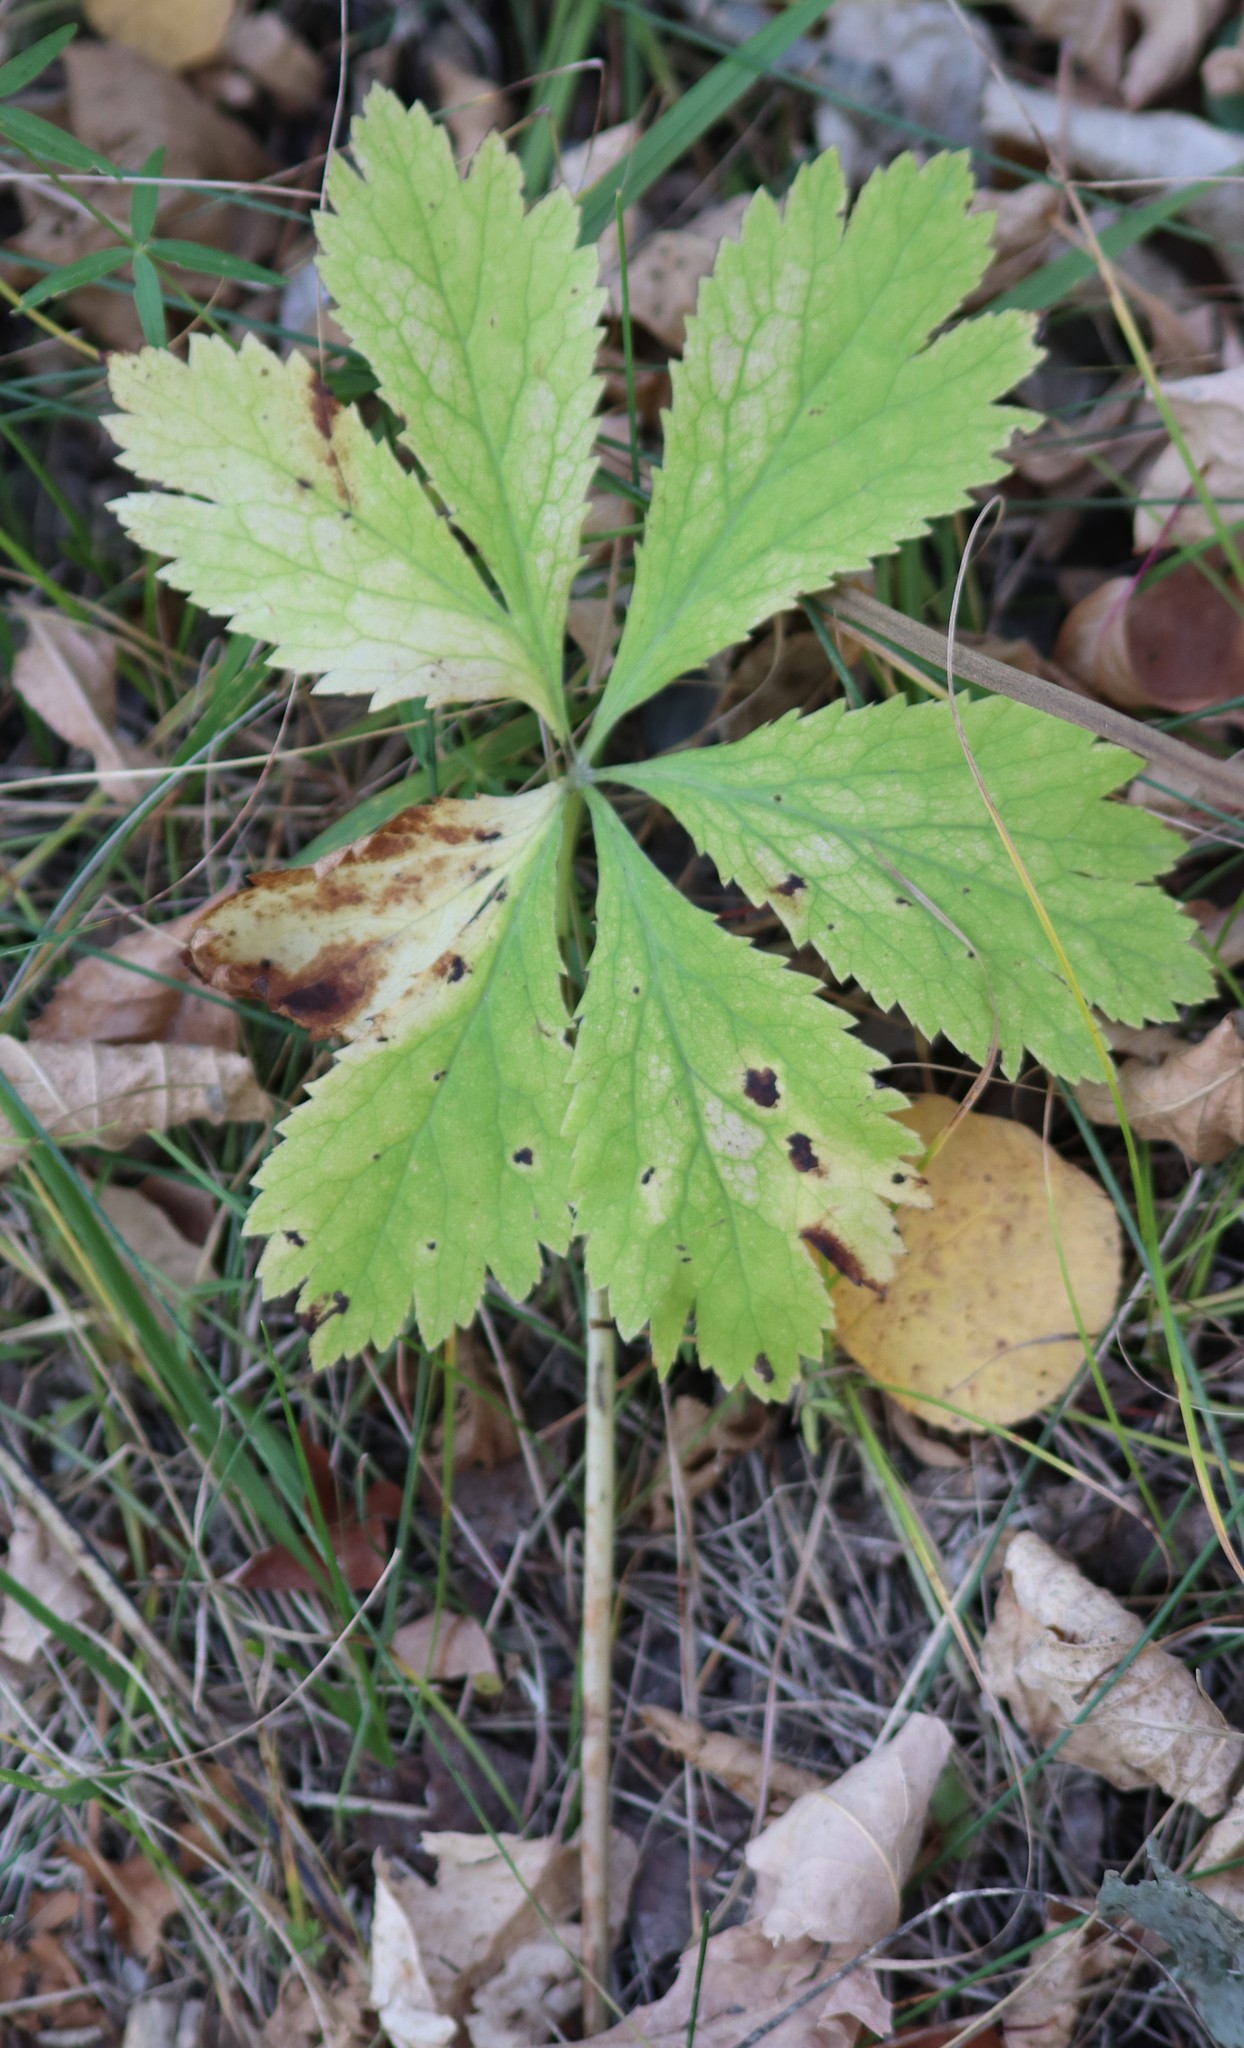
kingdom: Plantae
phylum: Tracheophyta
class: Magnoliopsida
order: Apiales
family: Apiaceae
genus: Sanicula
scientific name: Sanicula marilandica
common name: Black snakeroot
